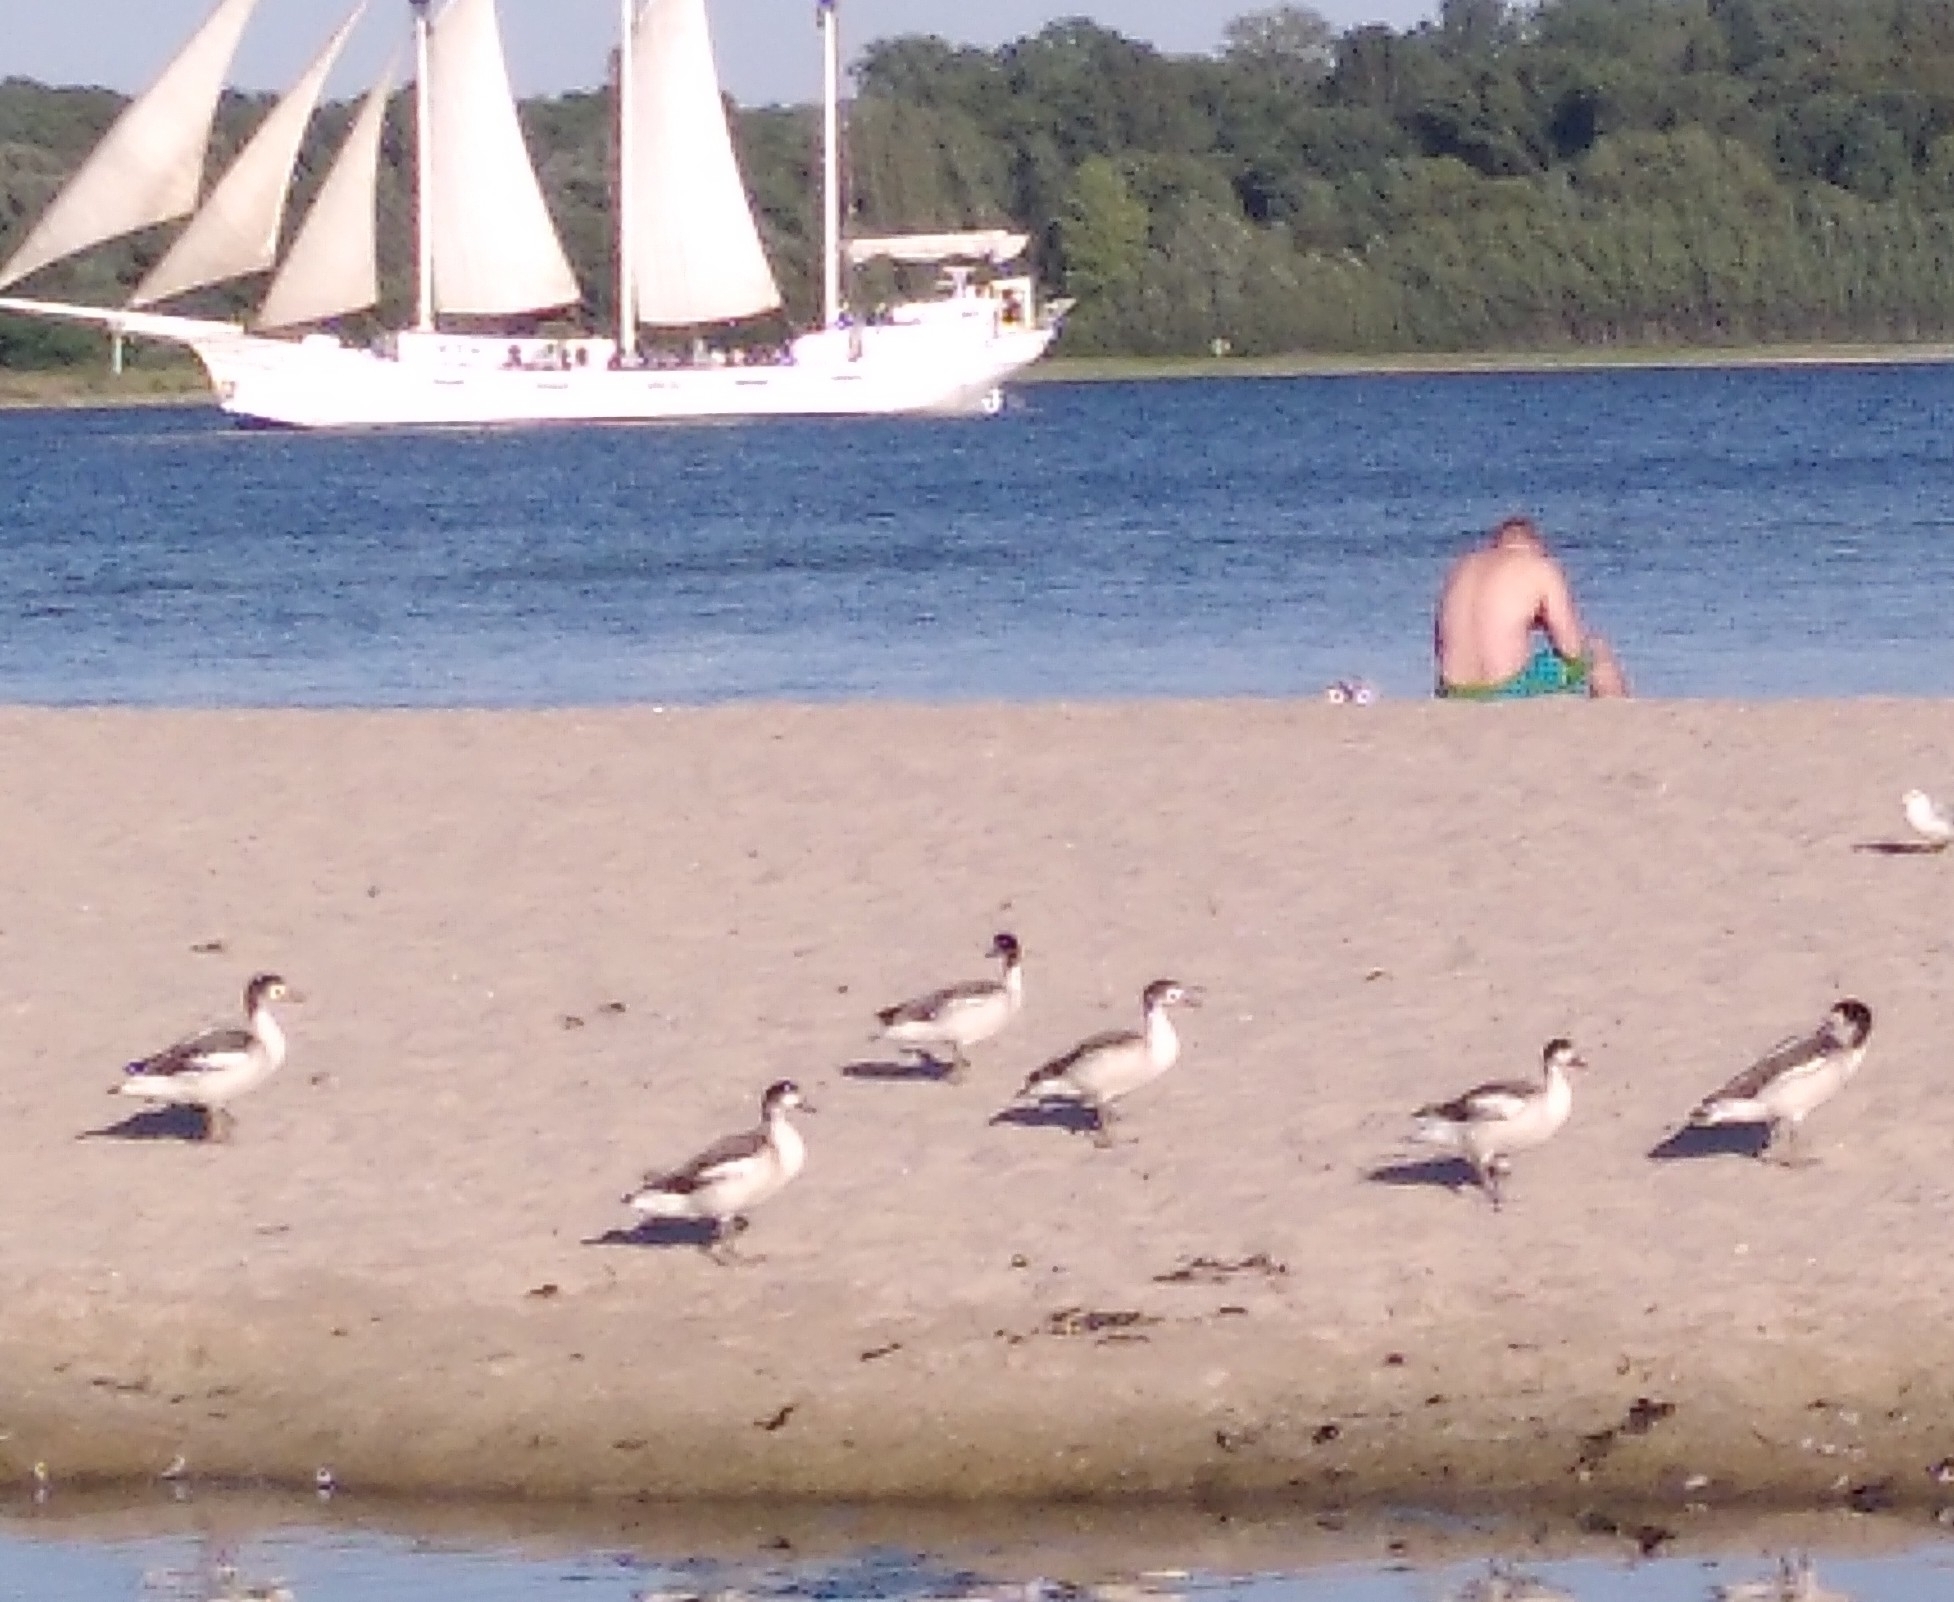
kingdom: Animalia
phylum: Chordata
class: Aves
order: Anseriformes
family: Anatidae
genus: Tadorna
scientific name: Tadorna tadorna
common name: Common shelduck
